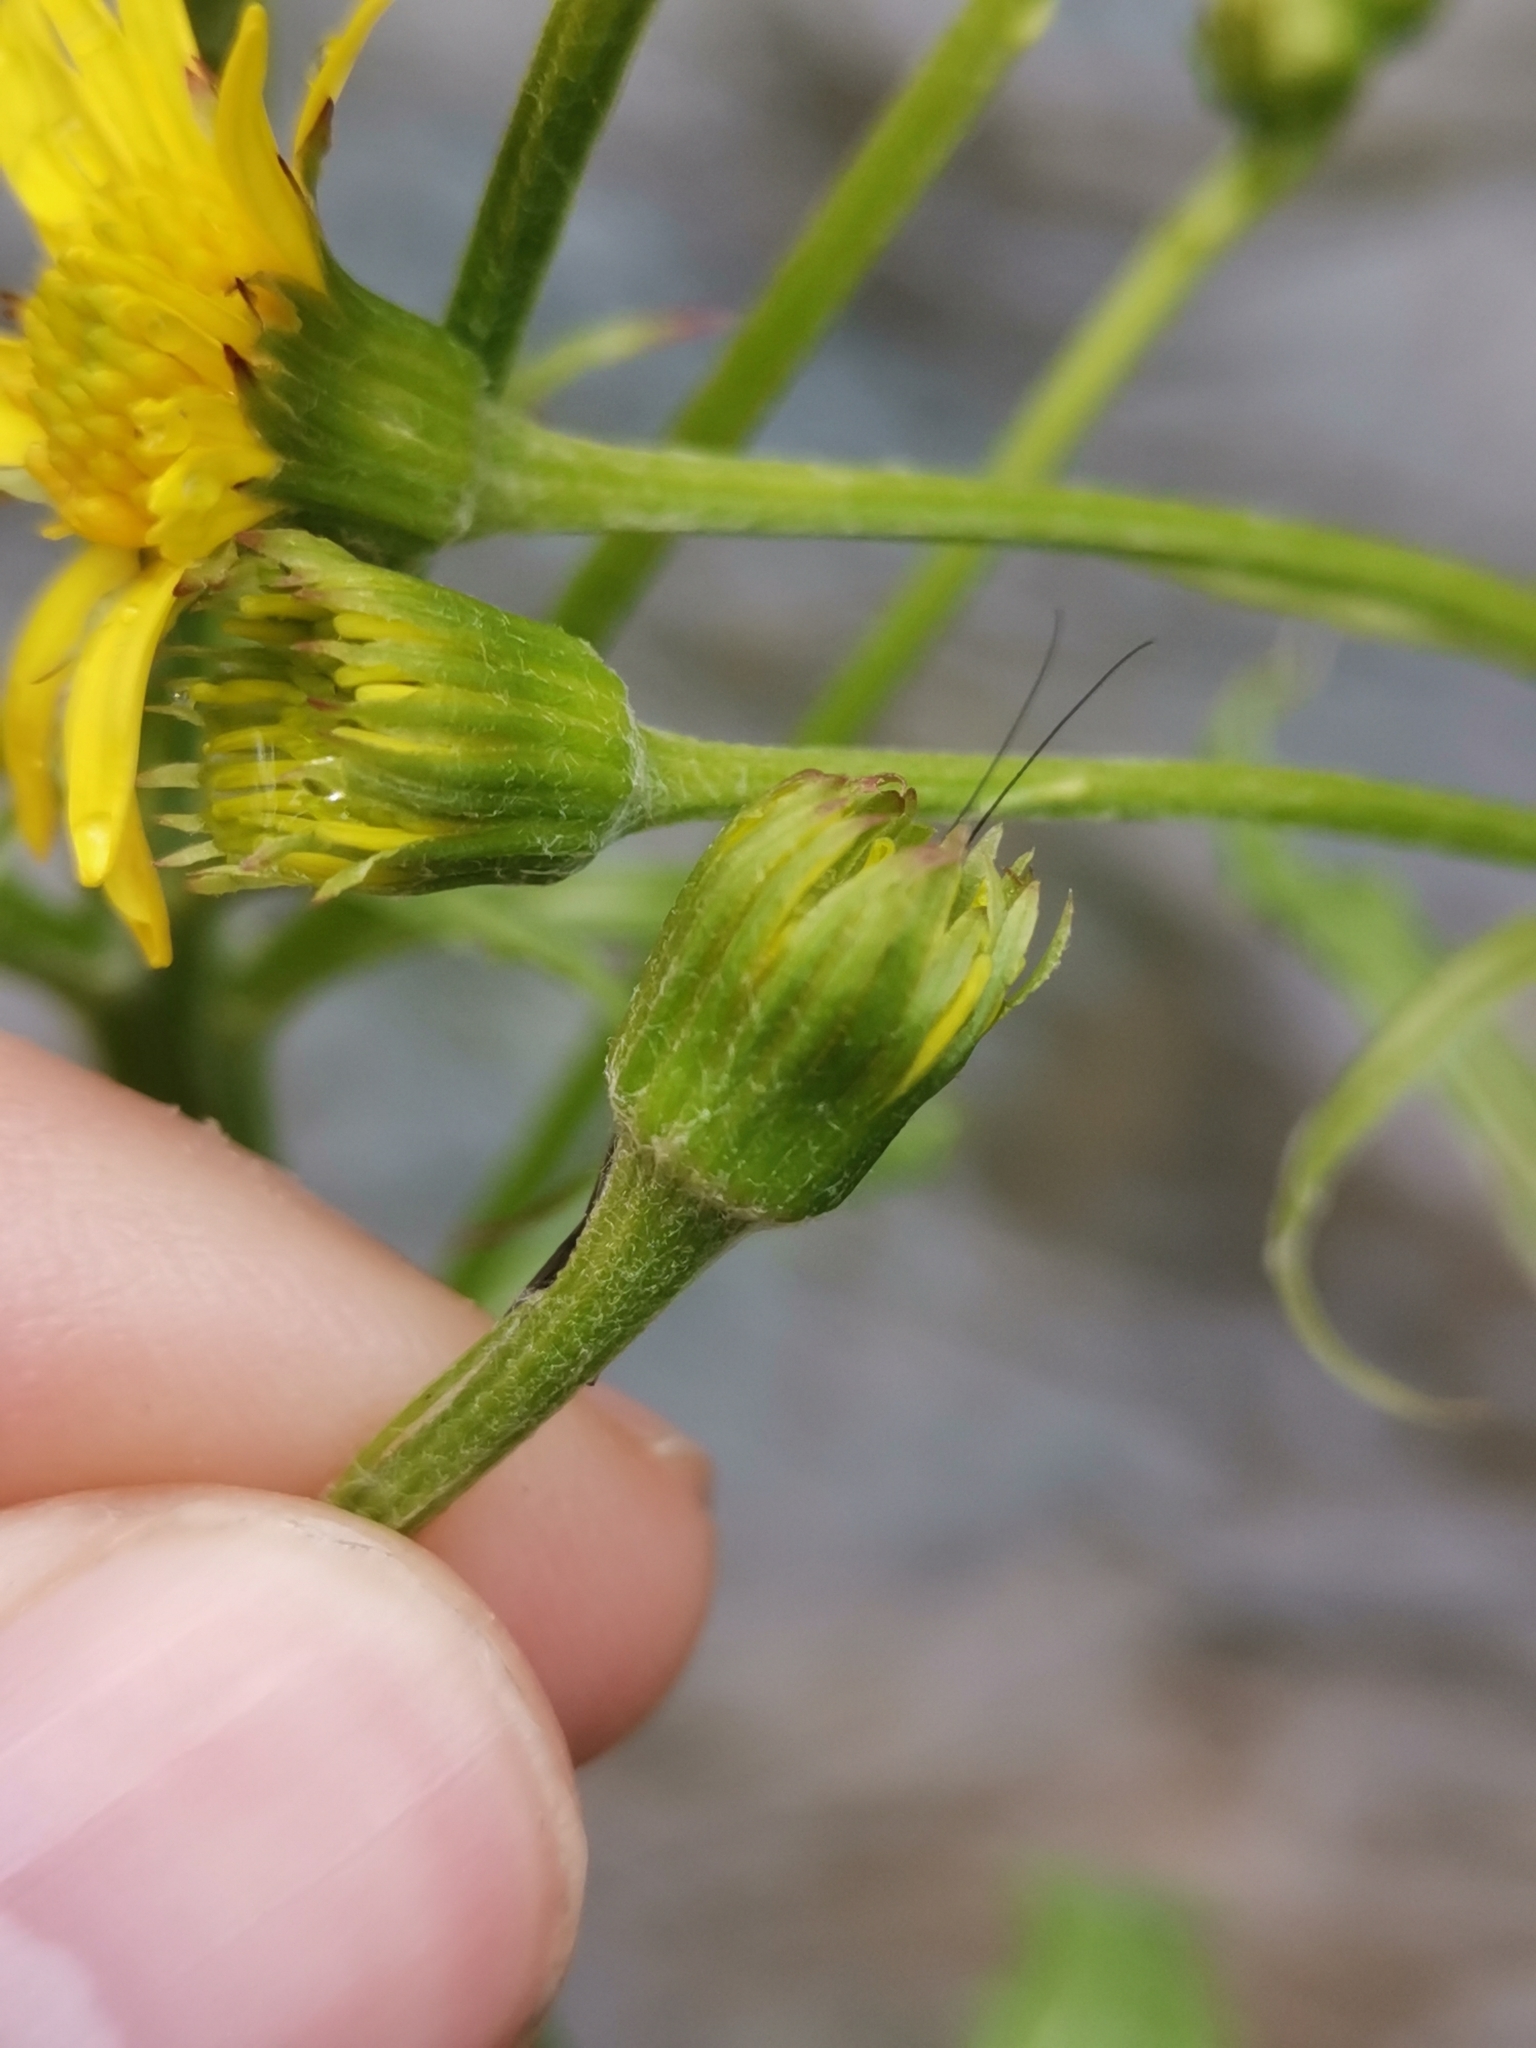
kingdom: Plantae
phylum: Tracheophyta
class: Magnoliopsida
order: Asterales
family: Asteraceae
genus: Tephroseris
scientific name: Tephroseris crispa
